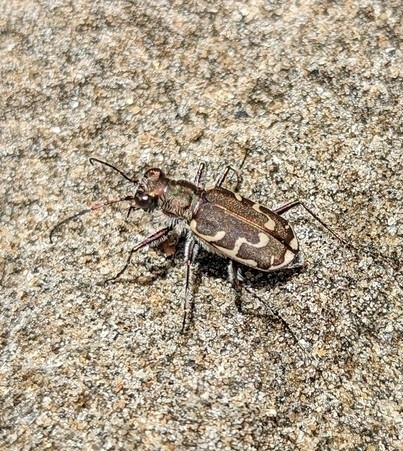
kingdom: Animalia
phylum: Arthropoda
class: Insecta
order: Coleoptera
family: Carabidae
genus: Cicindela
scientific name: Cicindela repanda
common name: Bronzed tiger beetle
